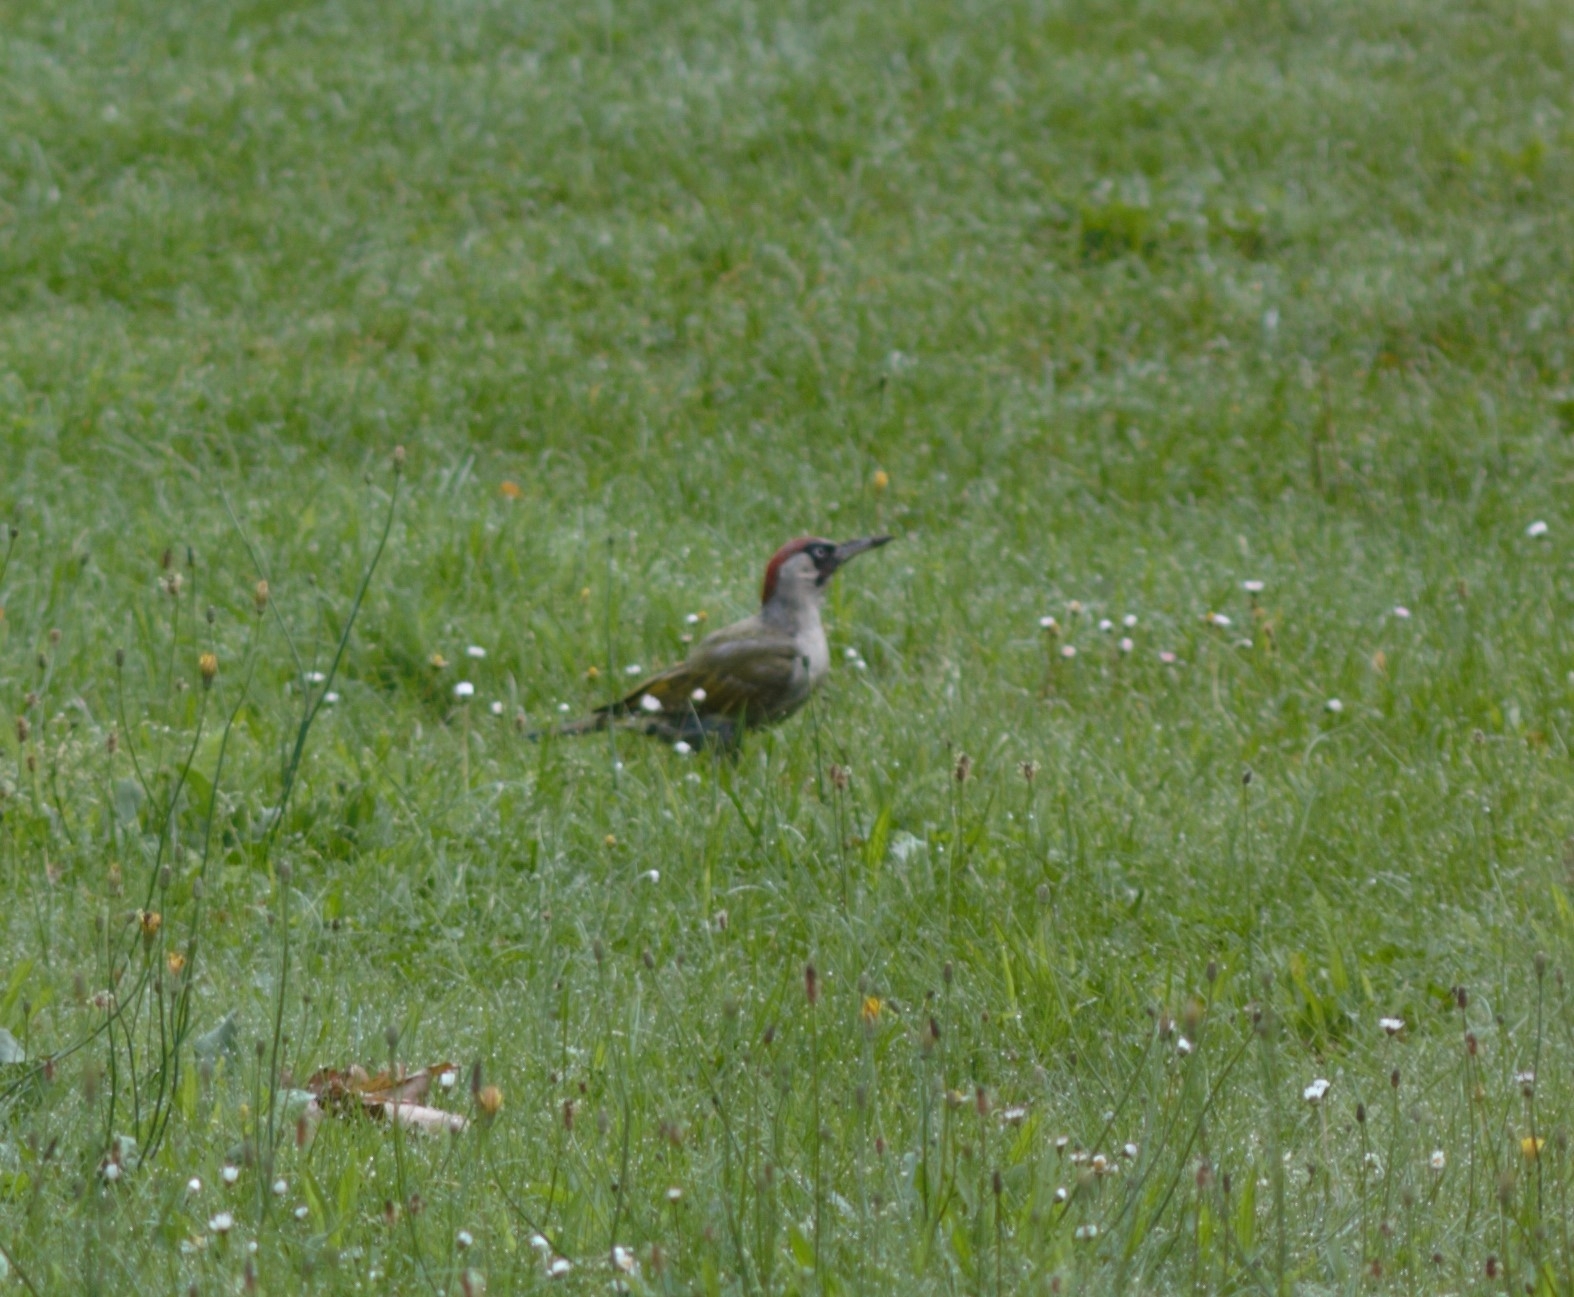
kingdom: Animalia
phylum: Chordata
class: Aves
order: Piciformes
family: Picidae
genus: Picus
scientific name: Picus viridis
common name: European green woodpecker
